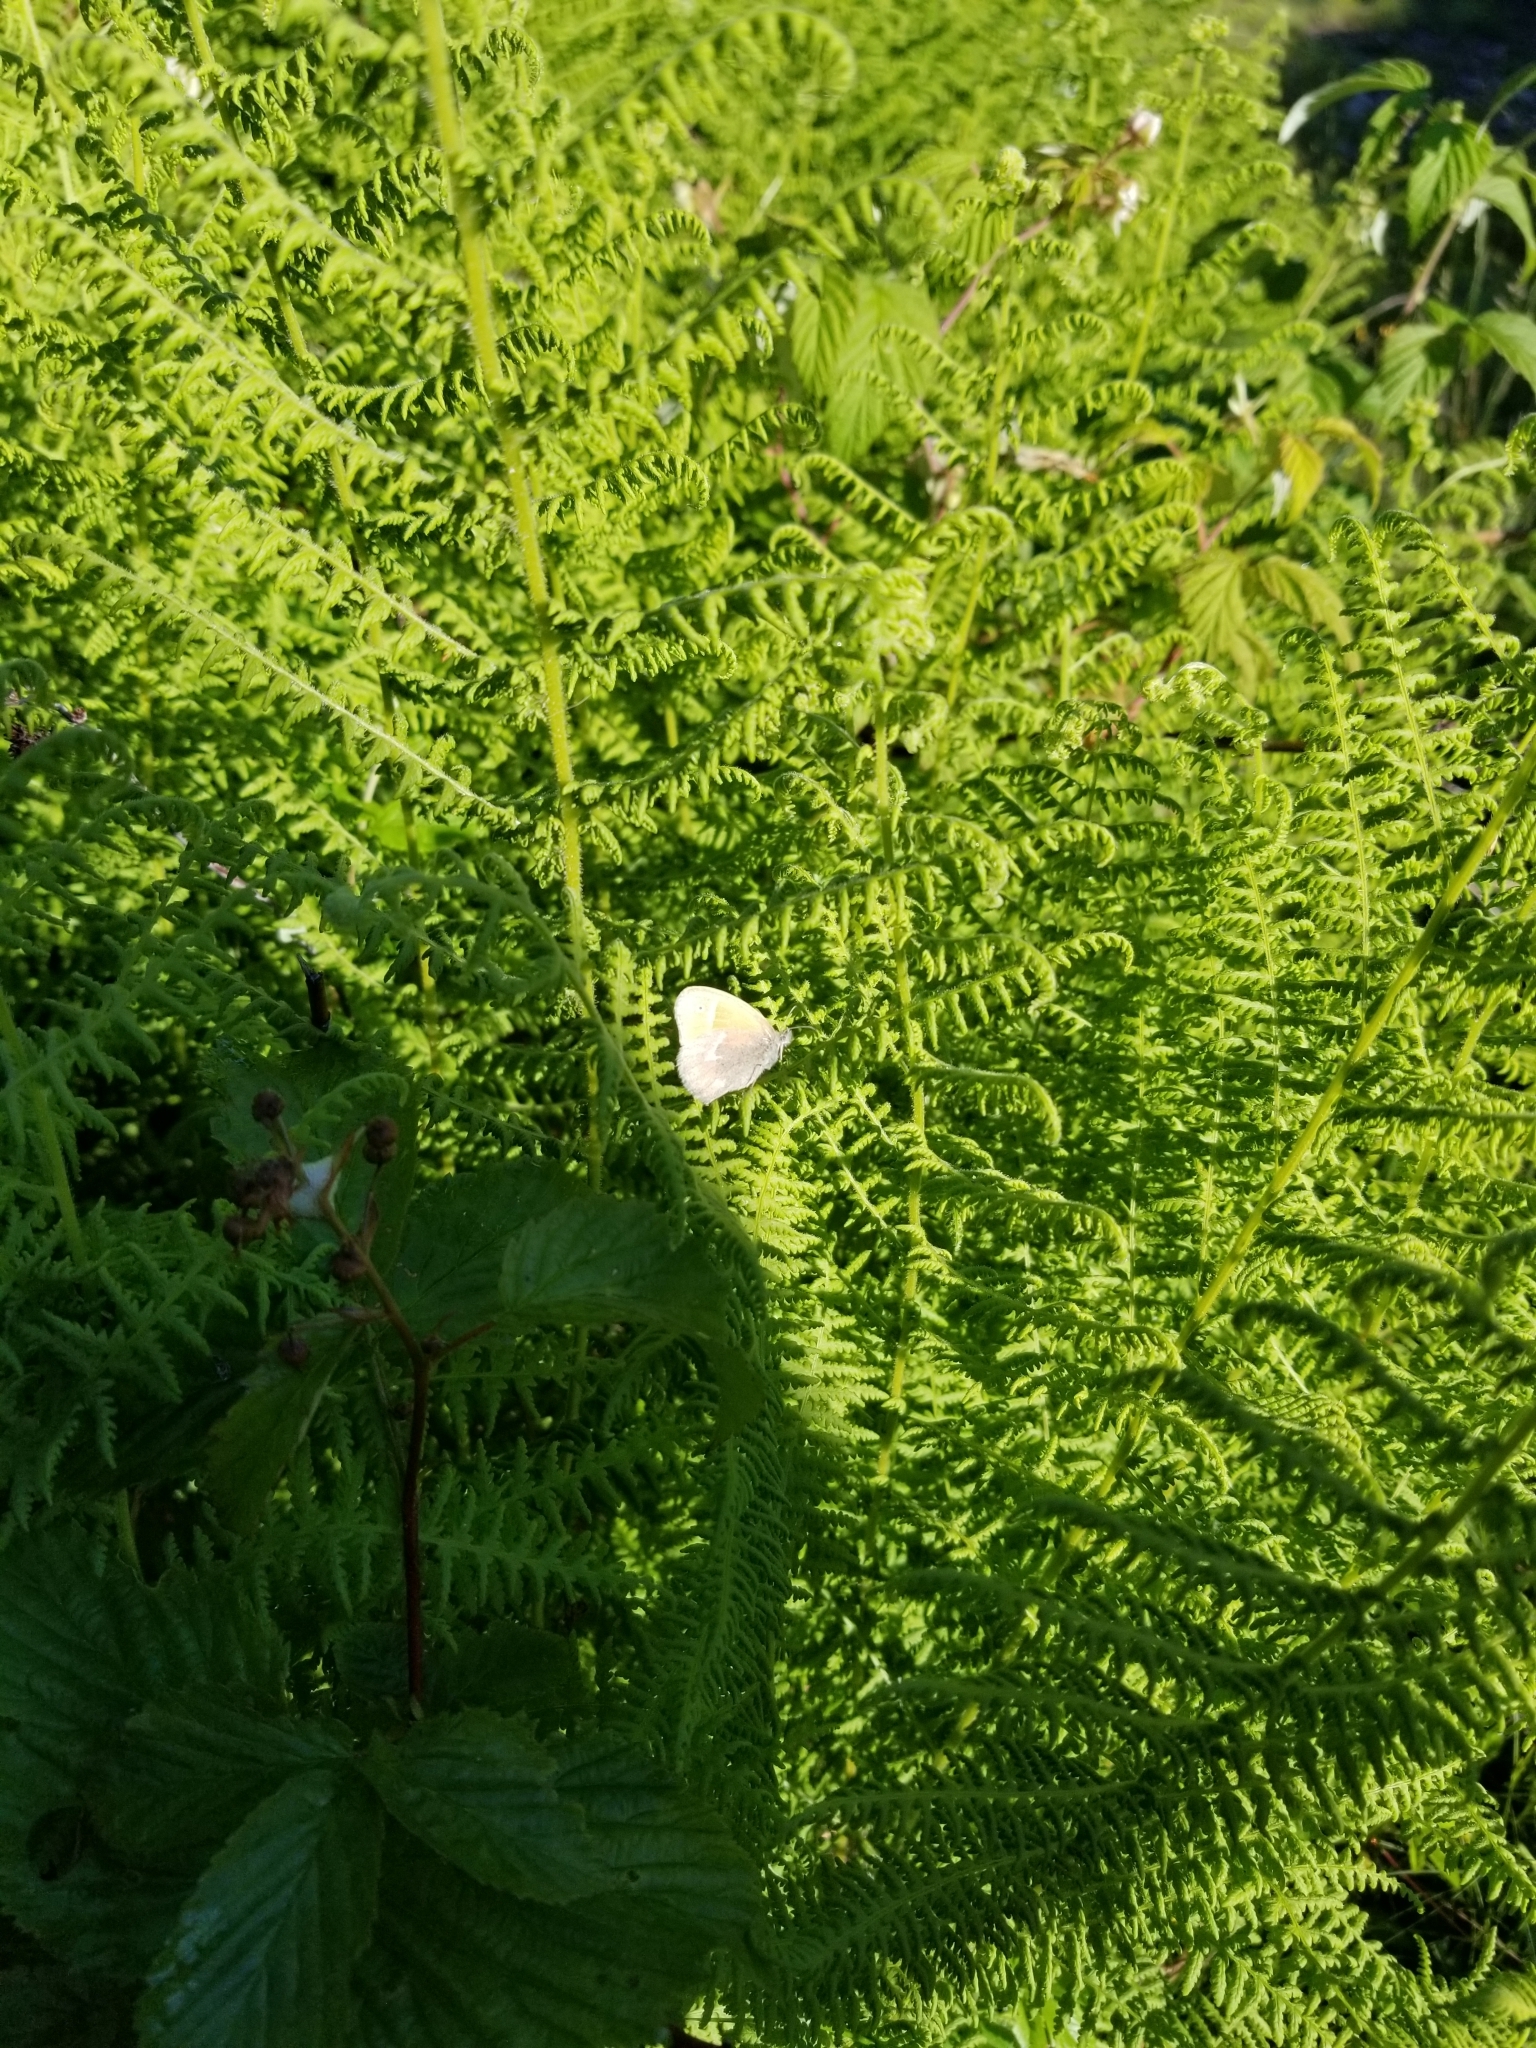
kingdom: Animalia
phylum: Arthropoda
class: Insecta
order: Lepidoptera
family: Nymphalidae
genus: Coenonympha
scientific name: Coenonympha california
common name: Common ringlet
